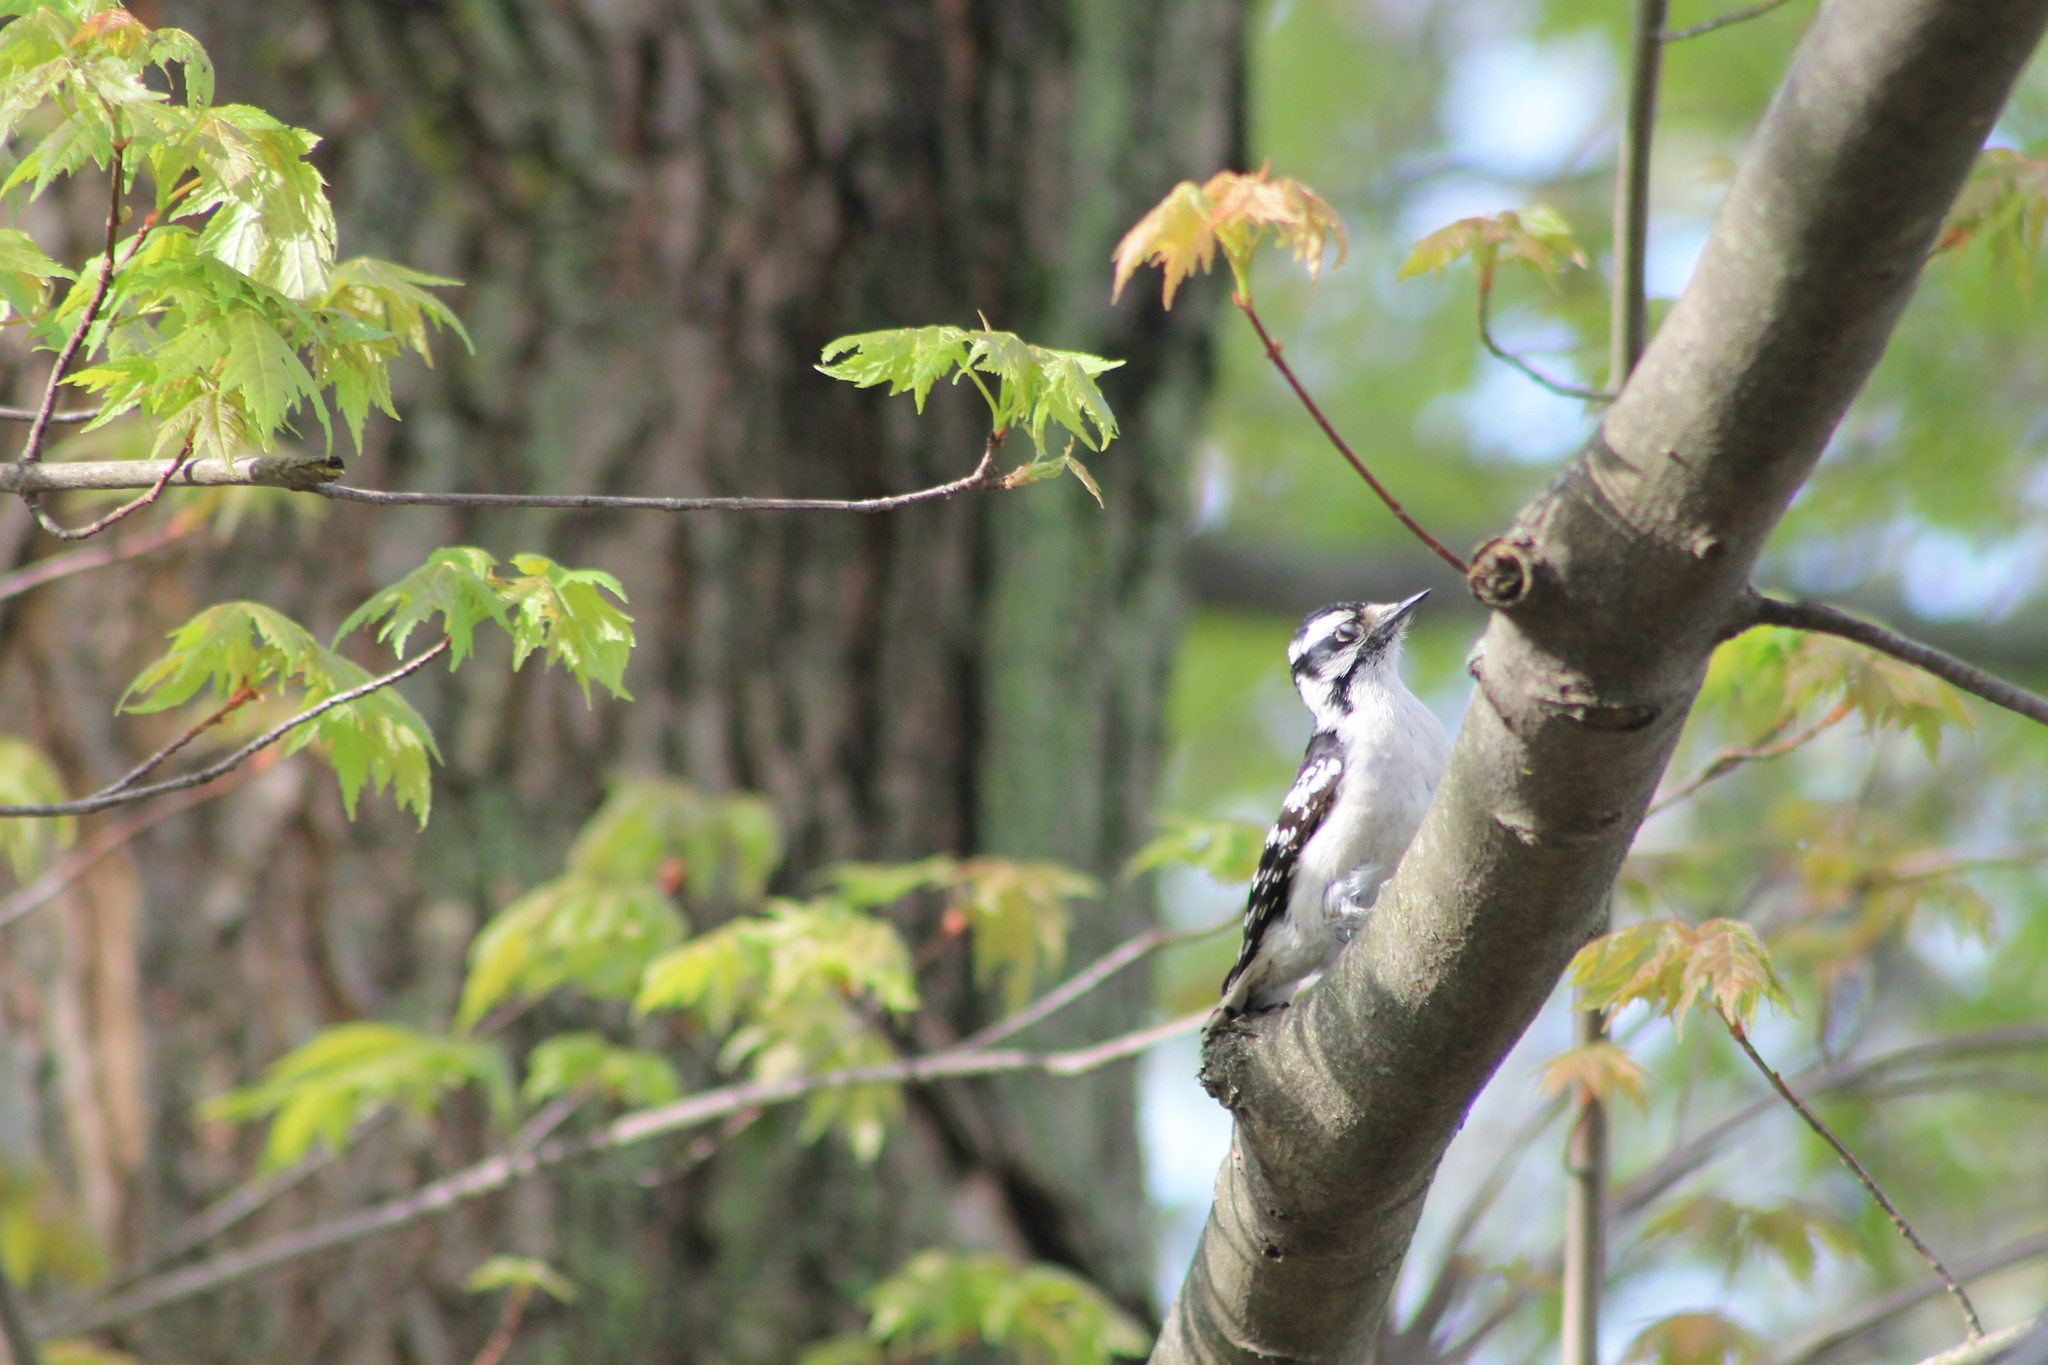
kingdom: Animalia
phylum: Chordata
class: Aves
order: Piciformes
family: Picidae
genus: Dryobates
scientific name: Dryobates pubescens
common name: Downy woodpecker
